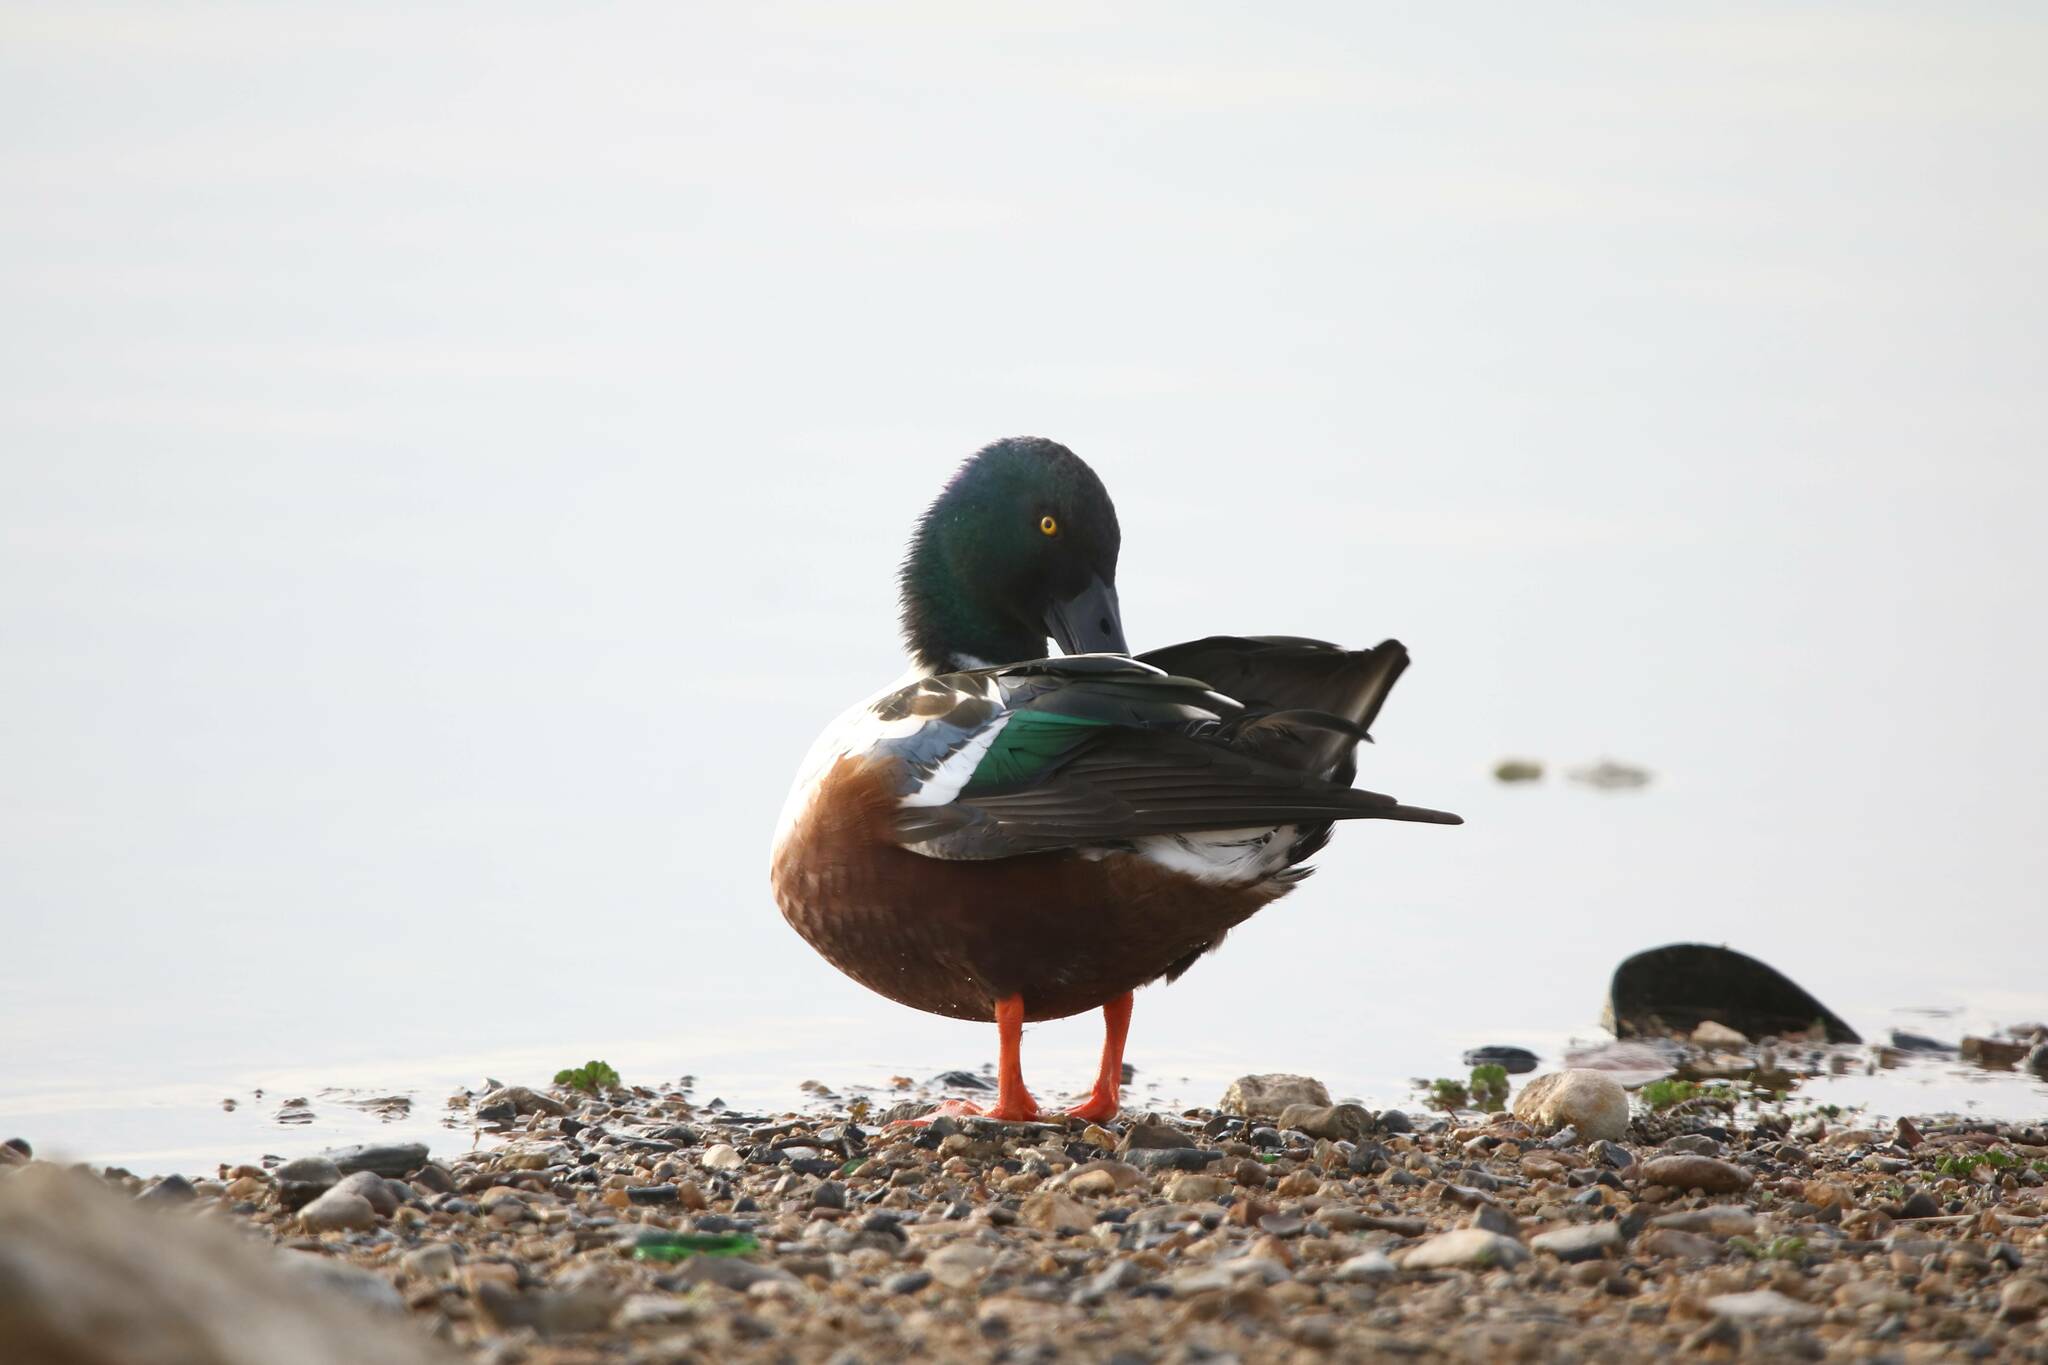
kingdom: Animalia
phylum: Chordata
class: Aves
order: Anseriformes
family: Anatidae
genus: Spatula
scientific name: Spatula clypeata
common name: Northern shoveler
